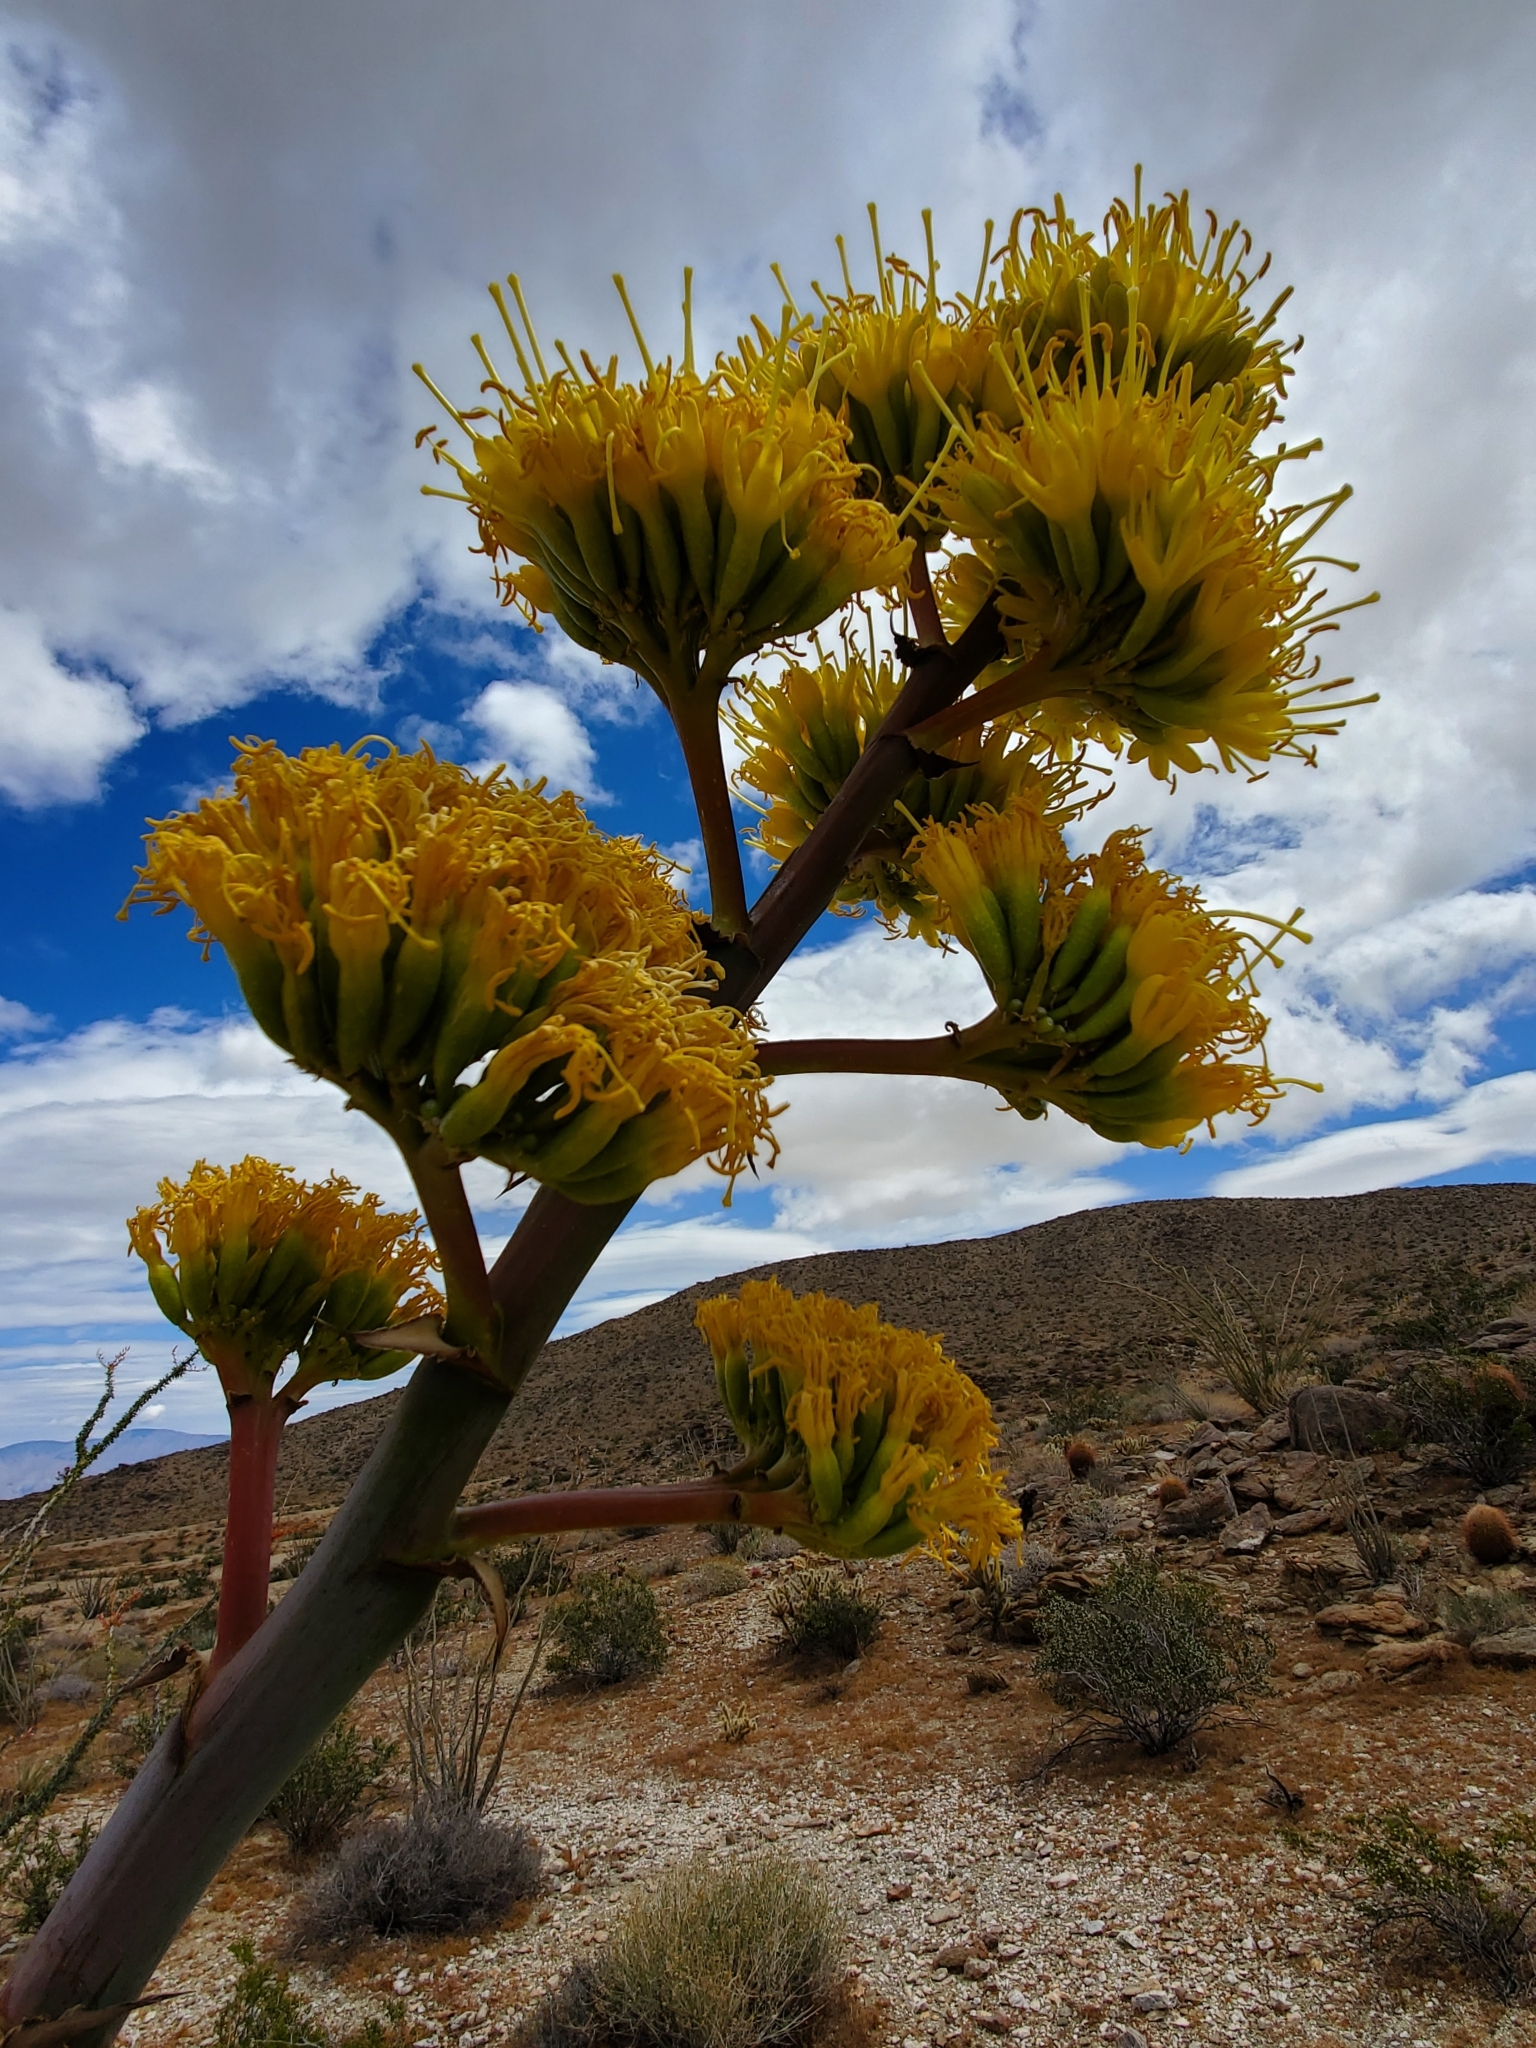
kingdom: Plantae
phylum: Tracheophyta
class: Liliopsida
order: Asparagales
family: Asparagaceae
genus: Agave
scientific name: Agave deserti
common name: Desert agave
